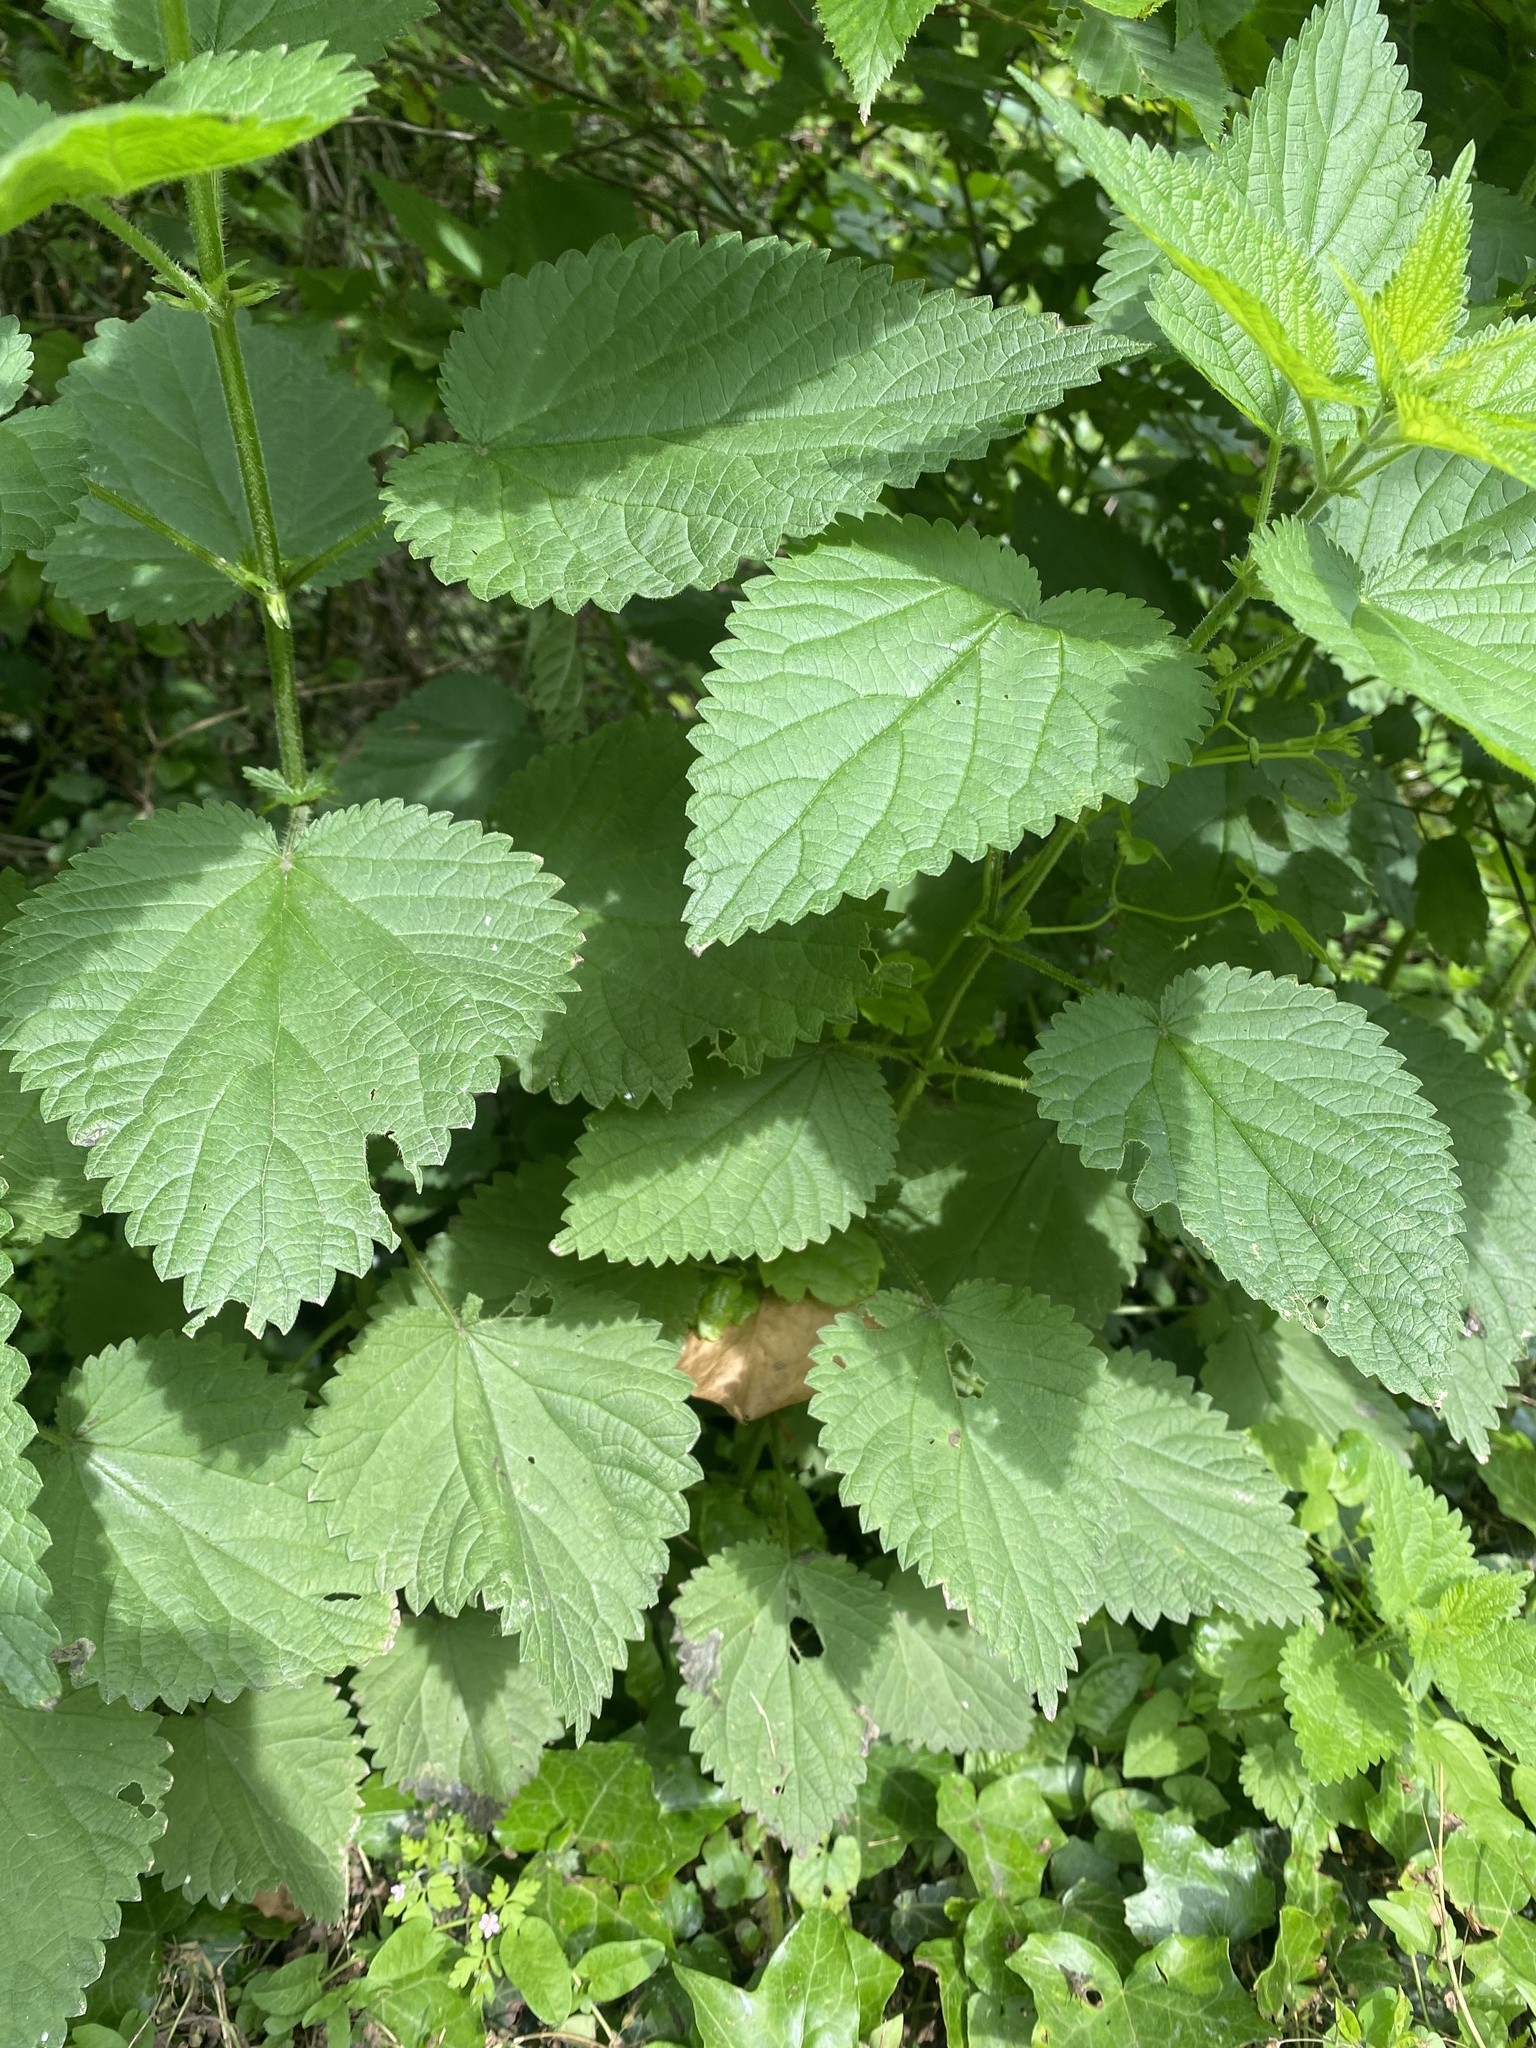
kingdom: Plantae
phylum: Tracheophyta
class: Magnoliopsida
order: Rosales
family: Urticaceae
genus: Urtica
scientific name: Urtica dioica
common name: Common nettle
